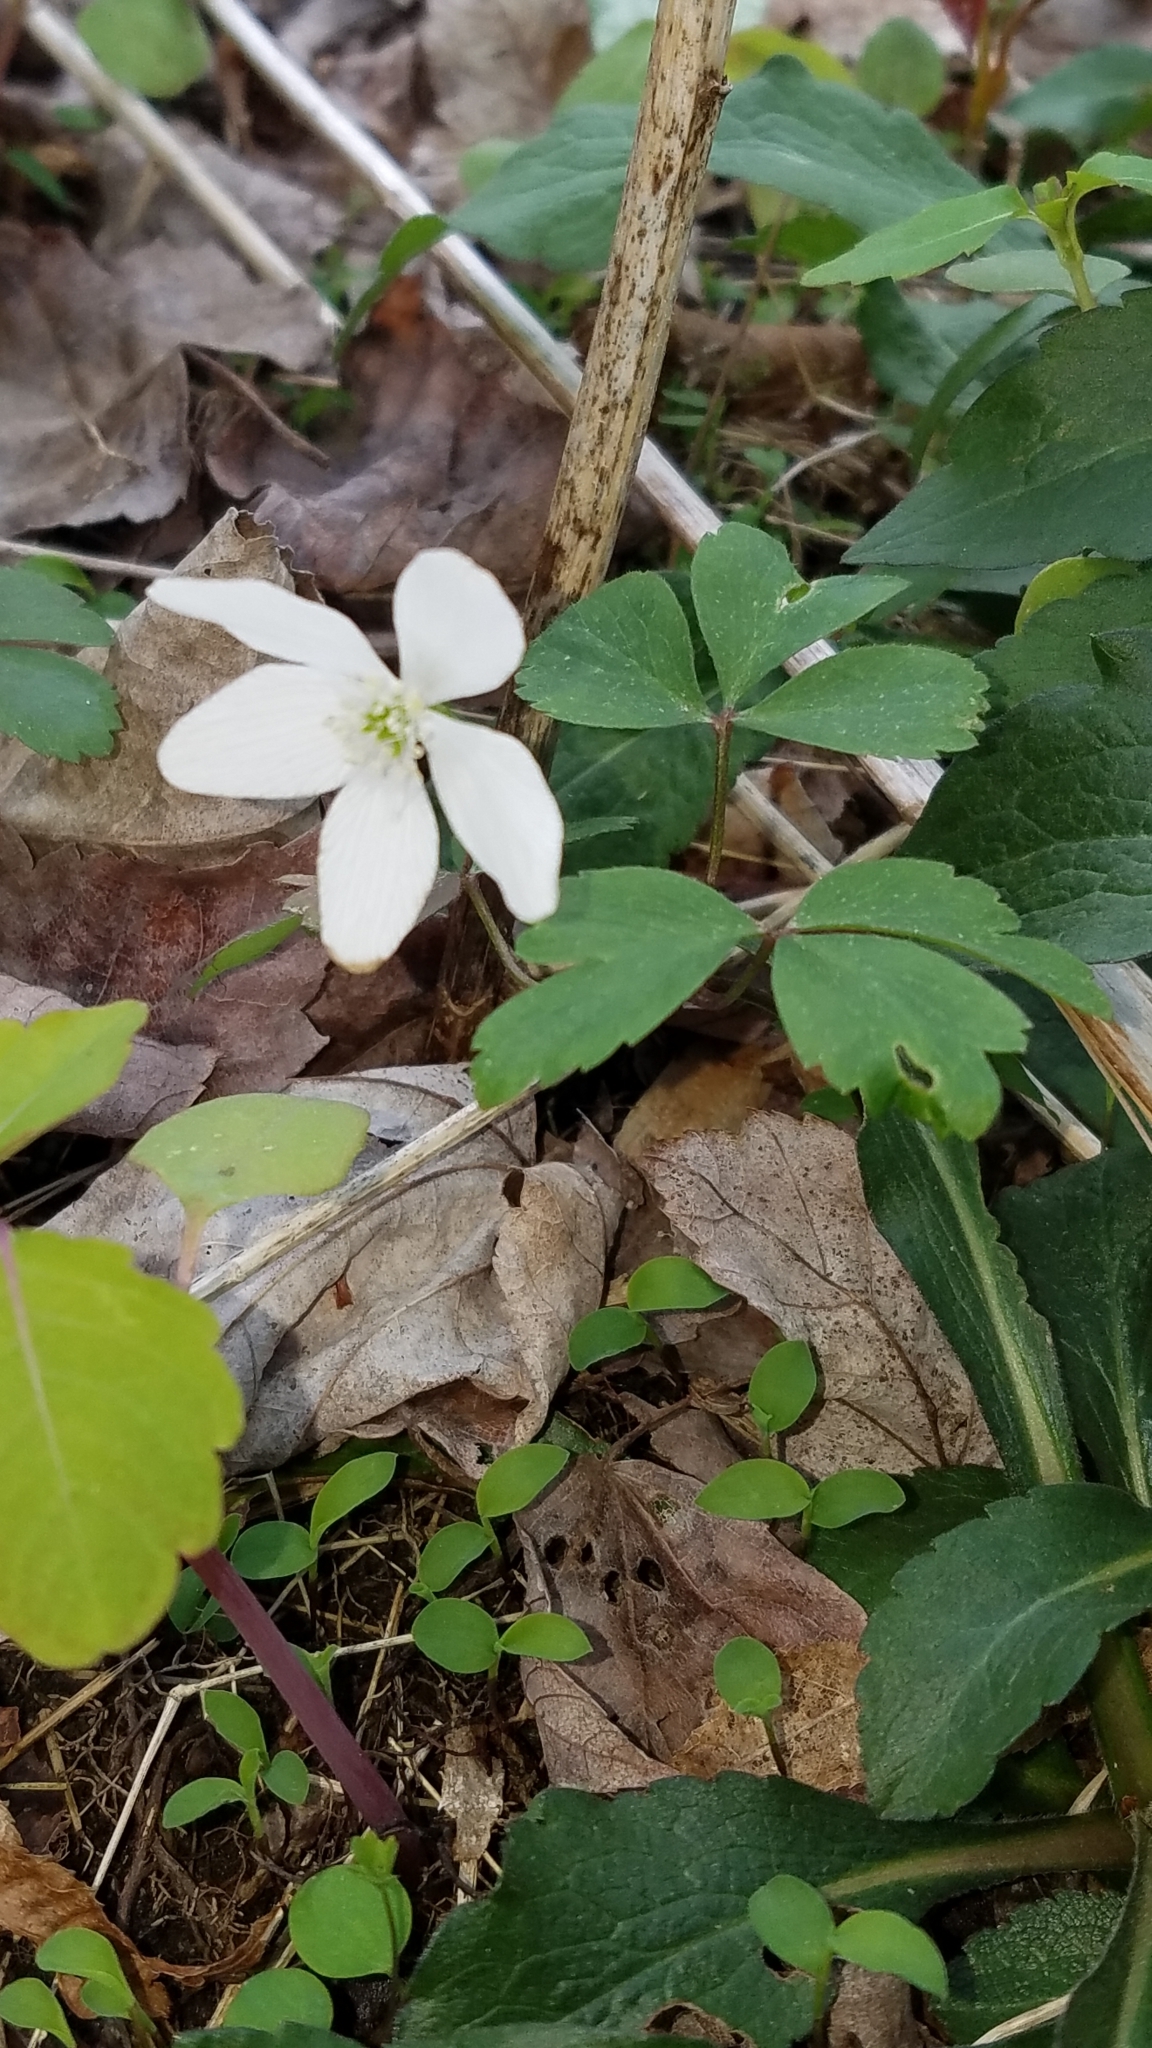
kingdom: Plantae
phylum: Tracheophyta
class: Magnoliopsida
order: Ranunculales
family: Ranunculaceae
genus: Anemone
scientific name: Anemone quinquefolia
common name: Wood anemone
